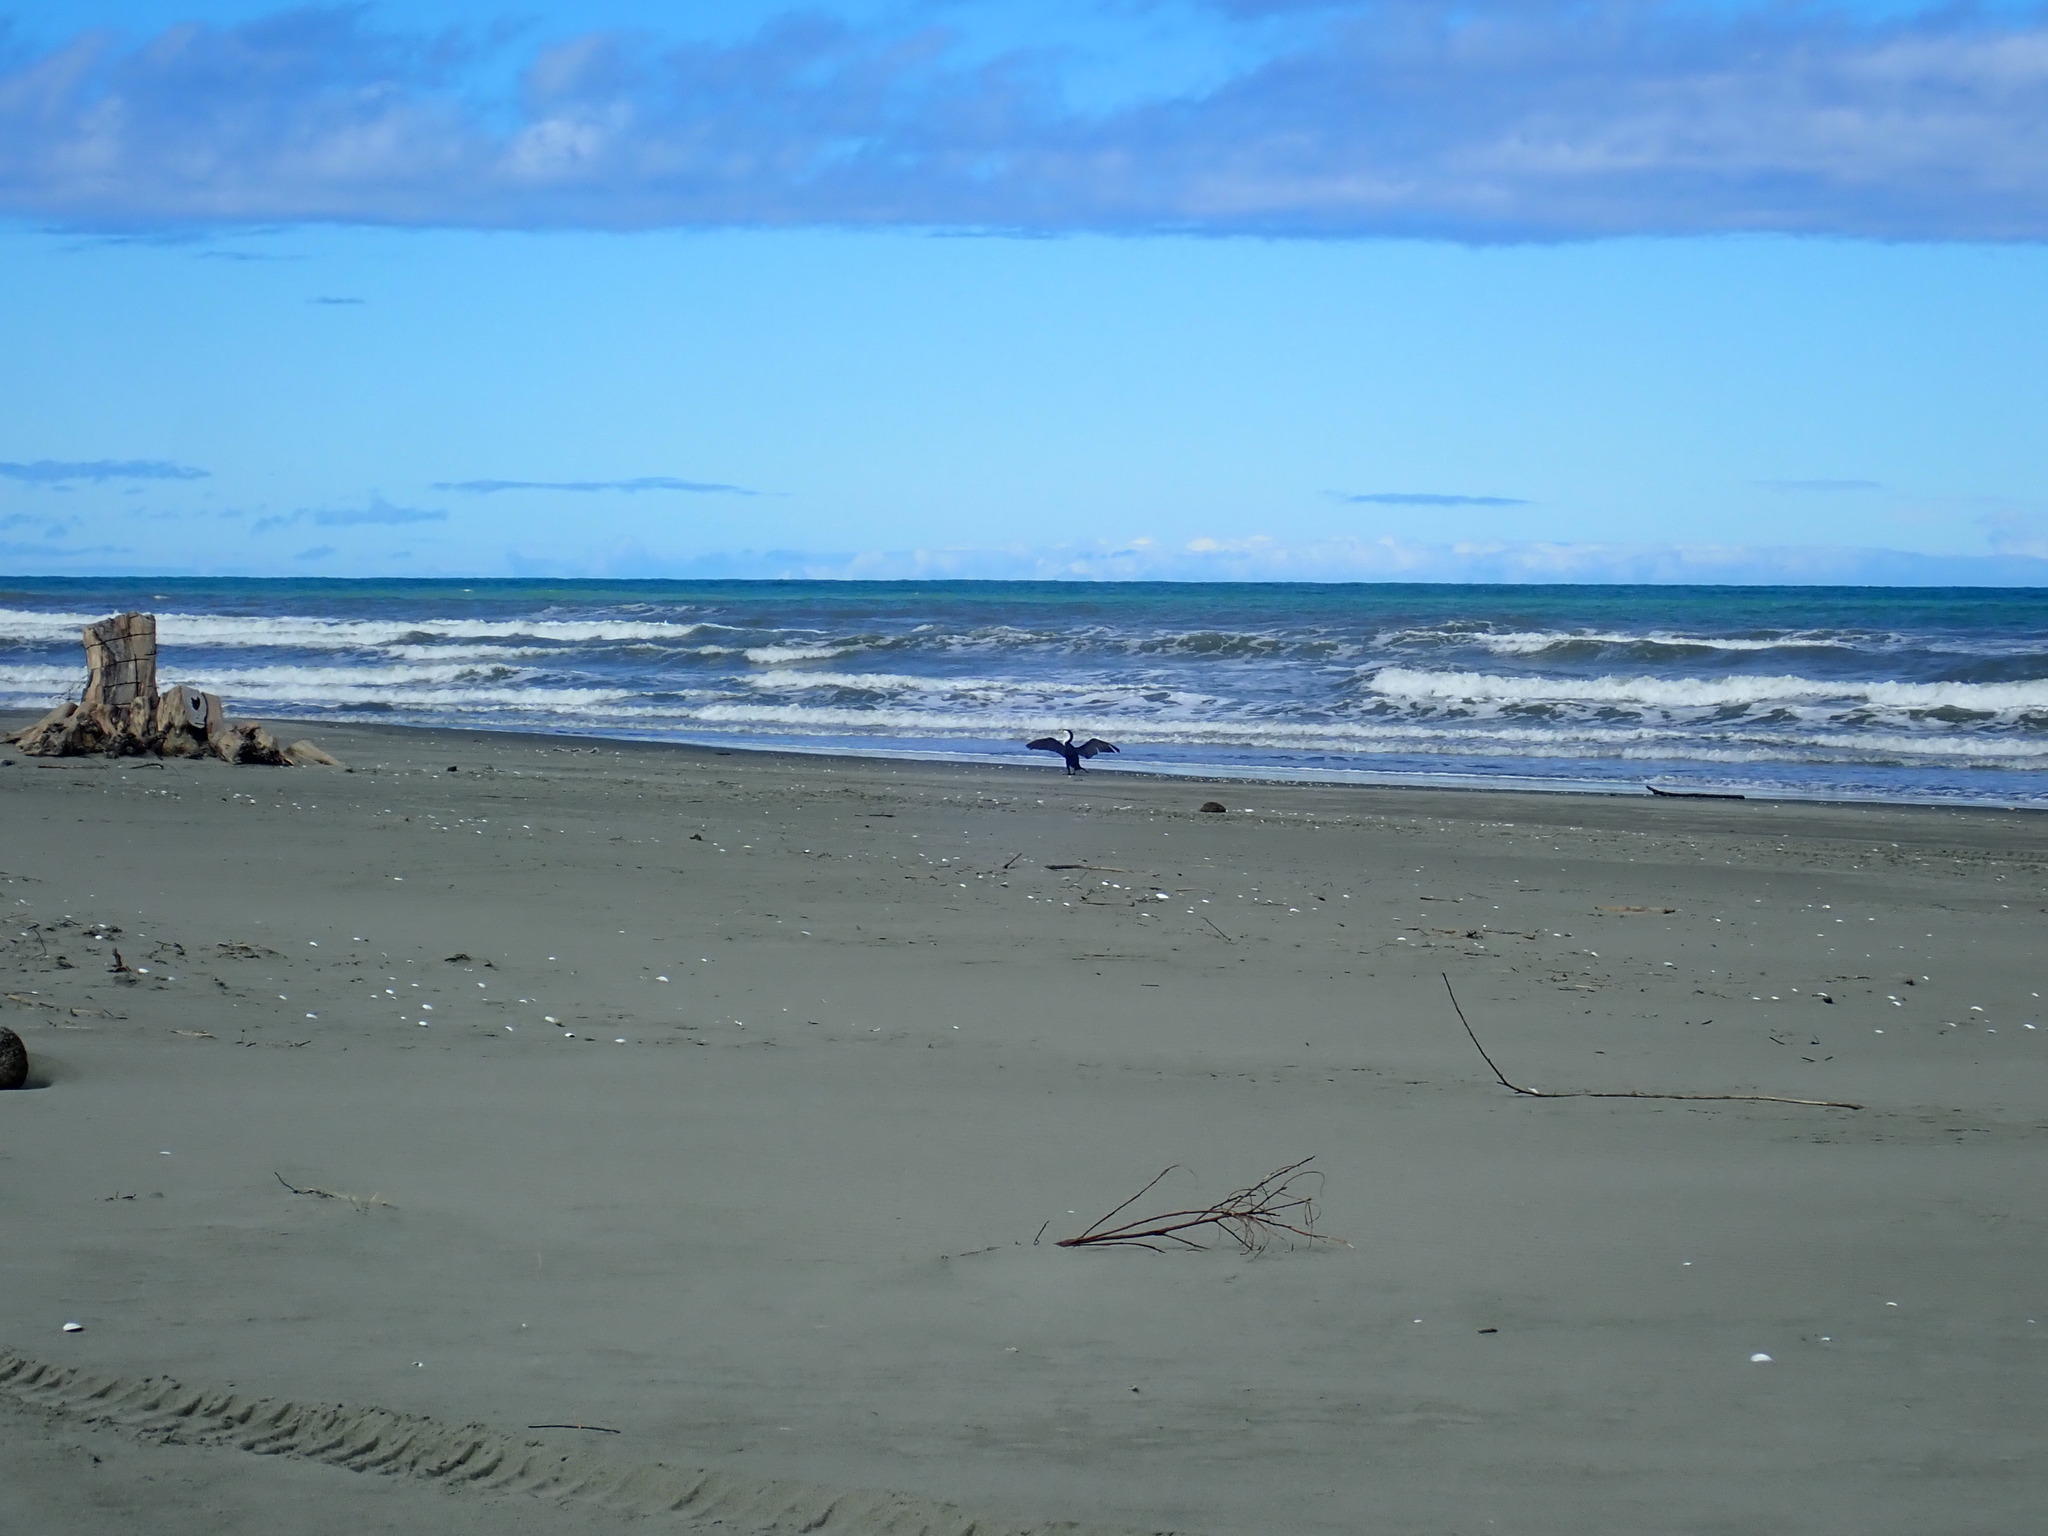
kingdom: Animalia
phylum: Chordata
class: Aves
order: Suliformes
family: Phalacrocoracidae
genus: Phalacrocorax
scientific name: Phalacrocorax varius
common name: Pied cormorant
